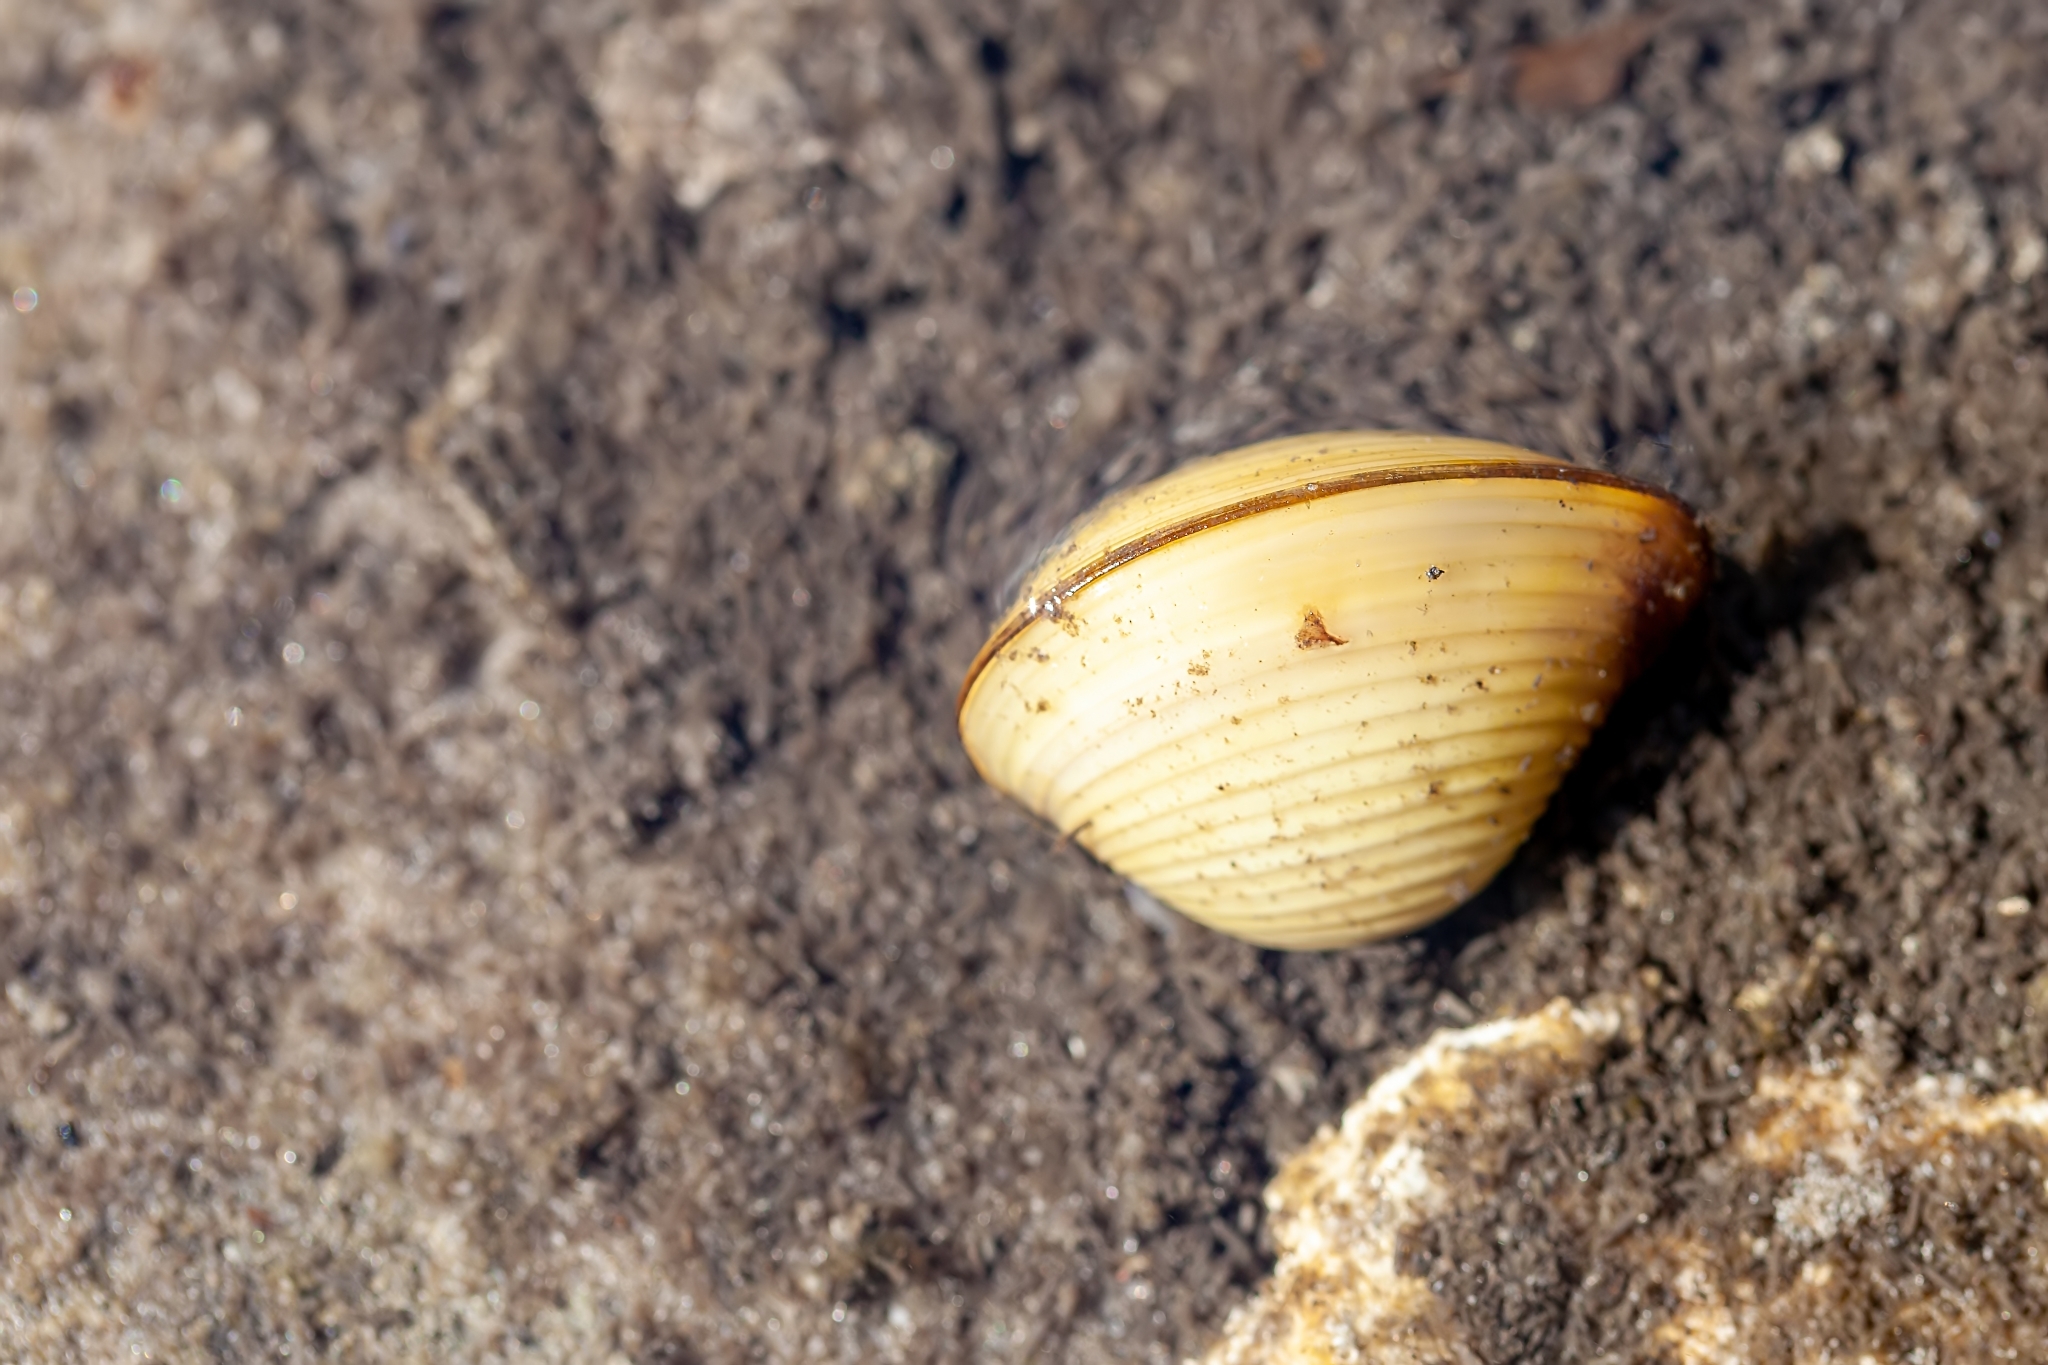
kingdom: Animalia
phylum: Mollusca
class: Bivalvia
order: Venerida
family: Cyrenidae
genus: Corbicula
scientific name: Corbicula fluminea
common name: Asian clam
